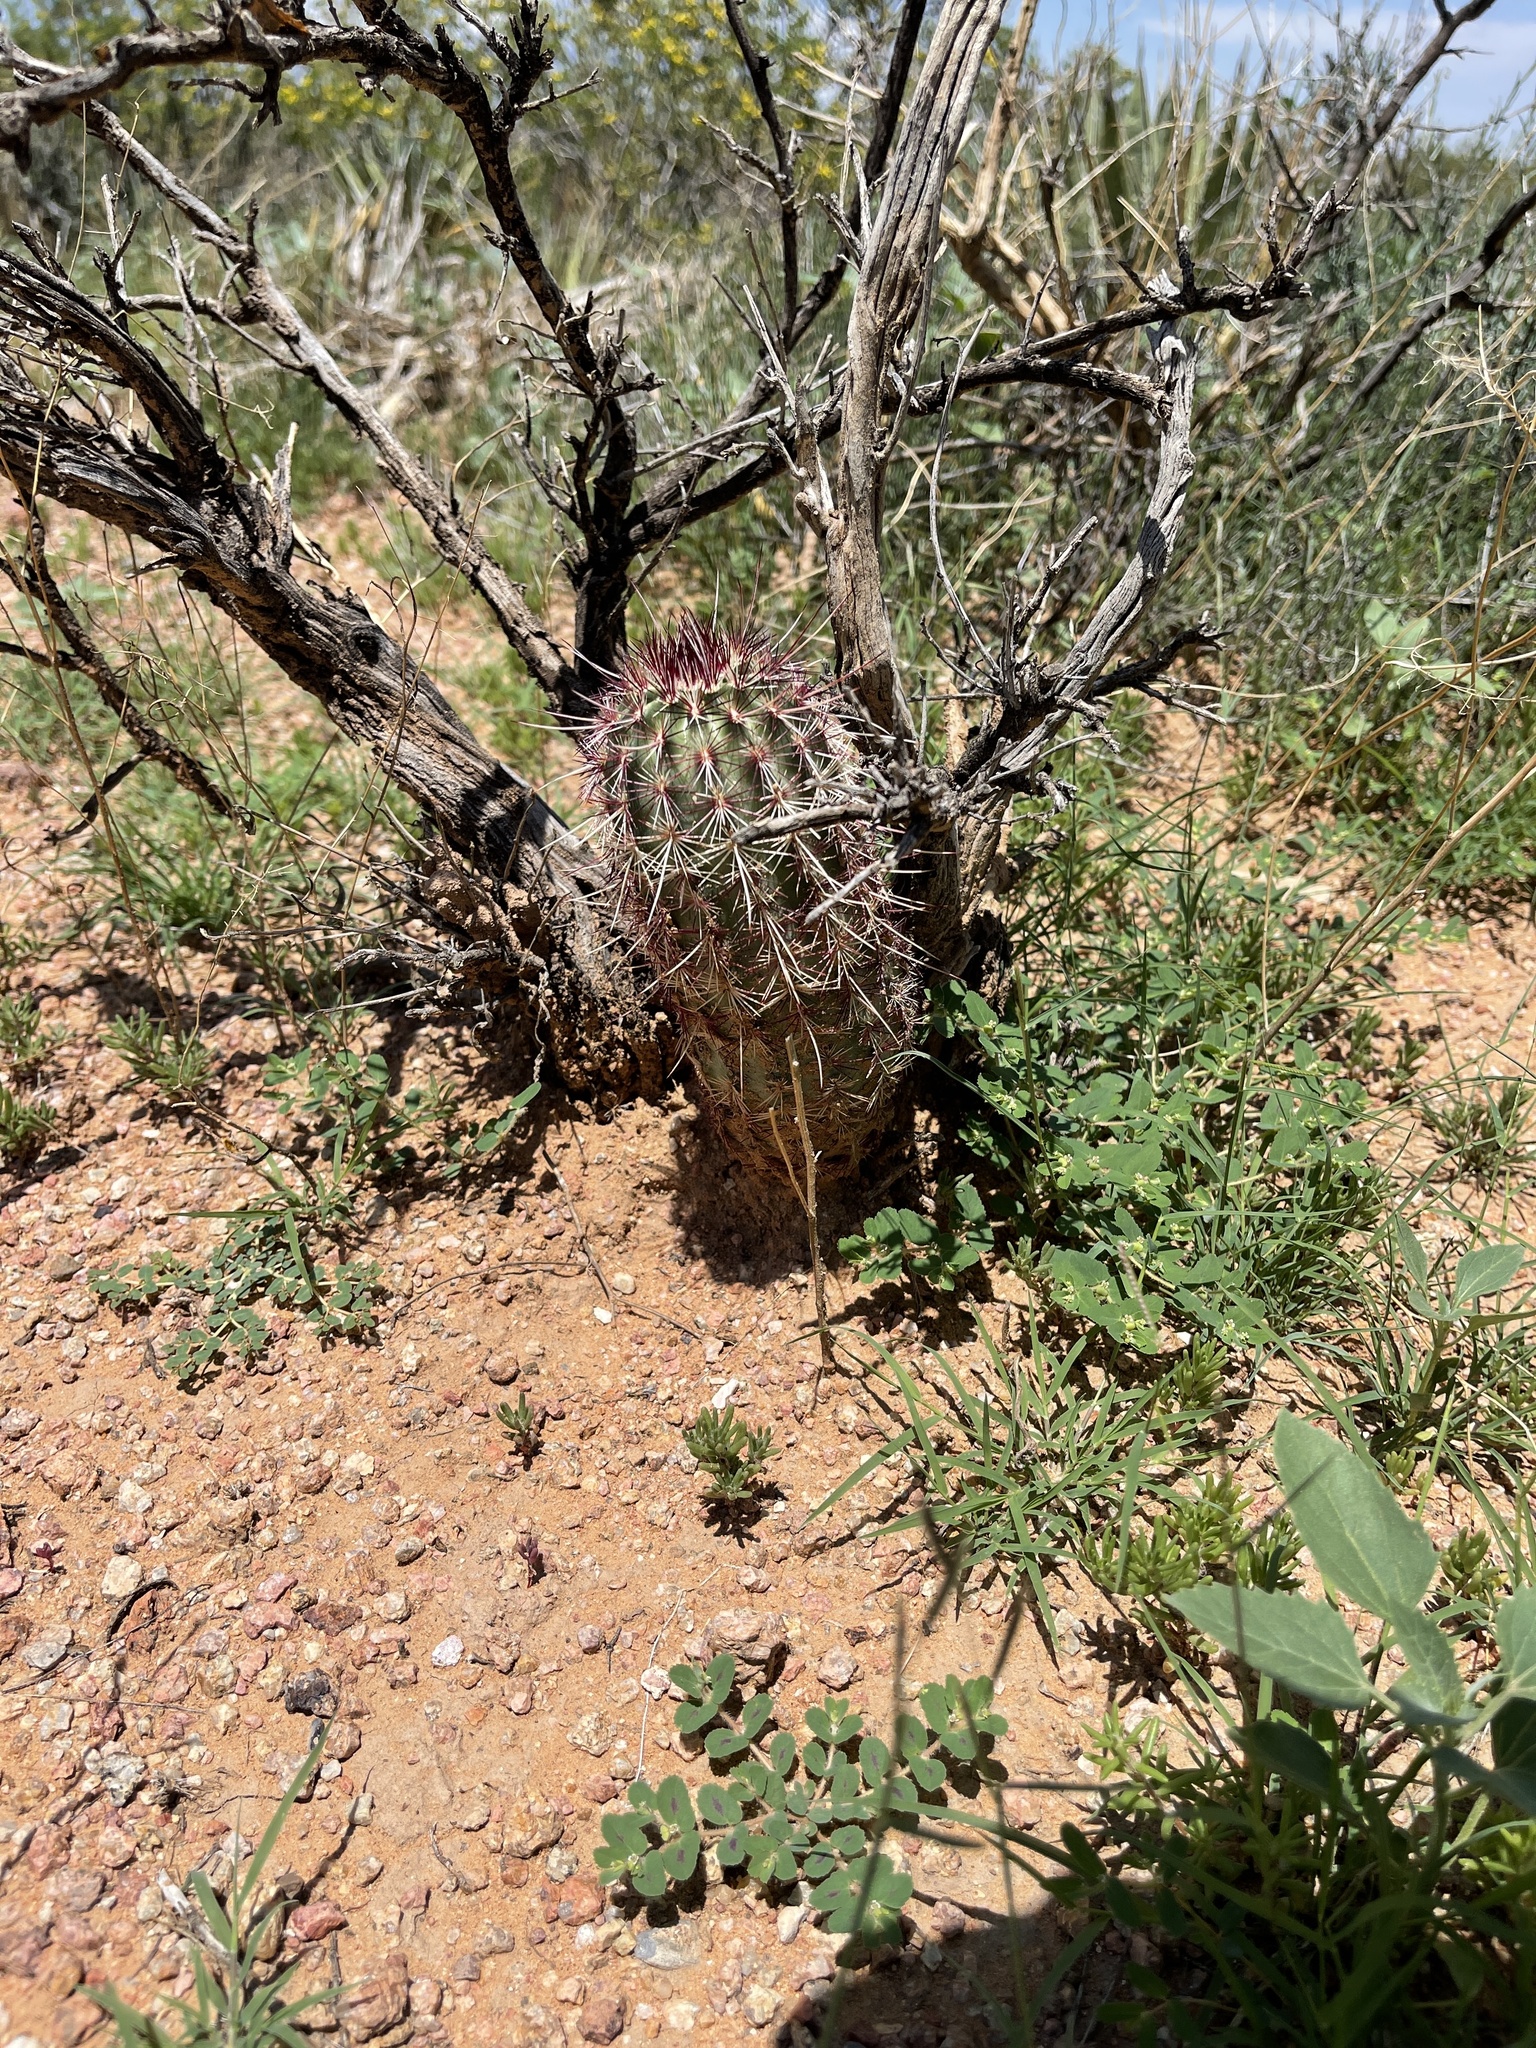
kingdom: Plantae
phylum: Tracheophyta
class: Magnoliopsida
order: Caryophyllales
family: Cactaceae
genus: Echinocereus
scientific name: Echinocereus viridiflorus
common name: Nylon hedgehog cactus
